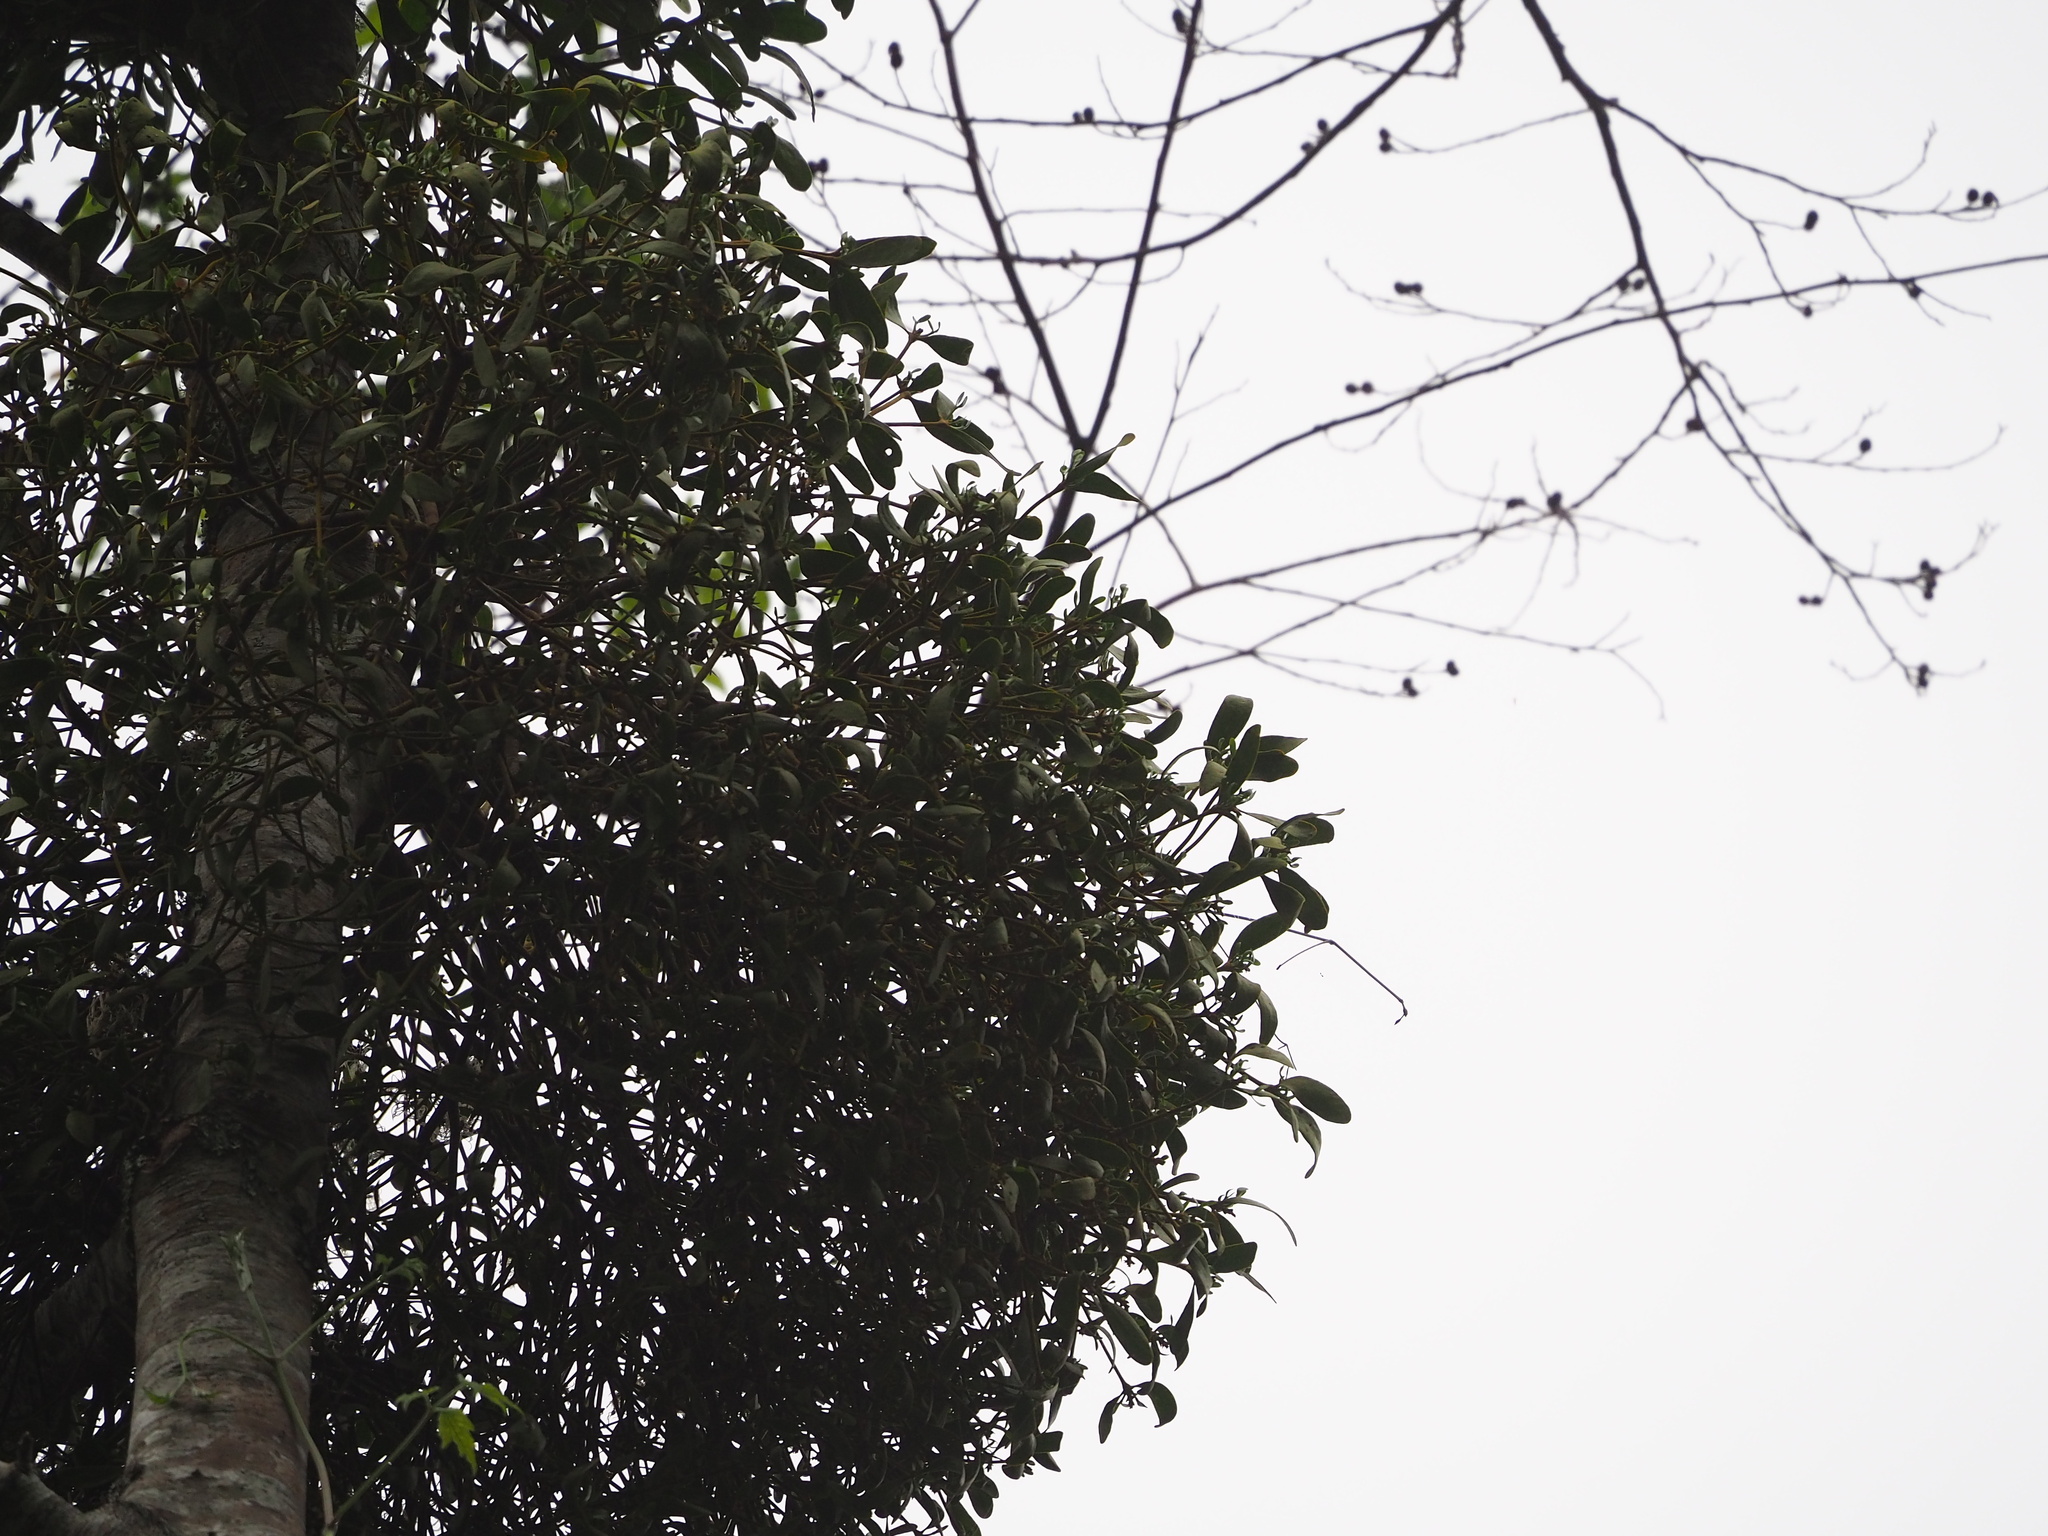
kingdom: Plantae
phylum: Tracheophyta
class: Magnoliopsida
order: Santalales
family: Viscaceae
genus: Viscum
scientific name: Viscum coloratum
